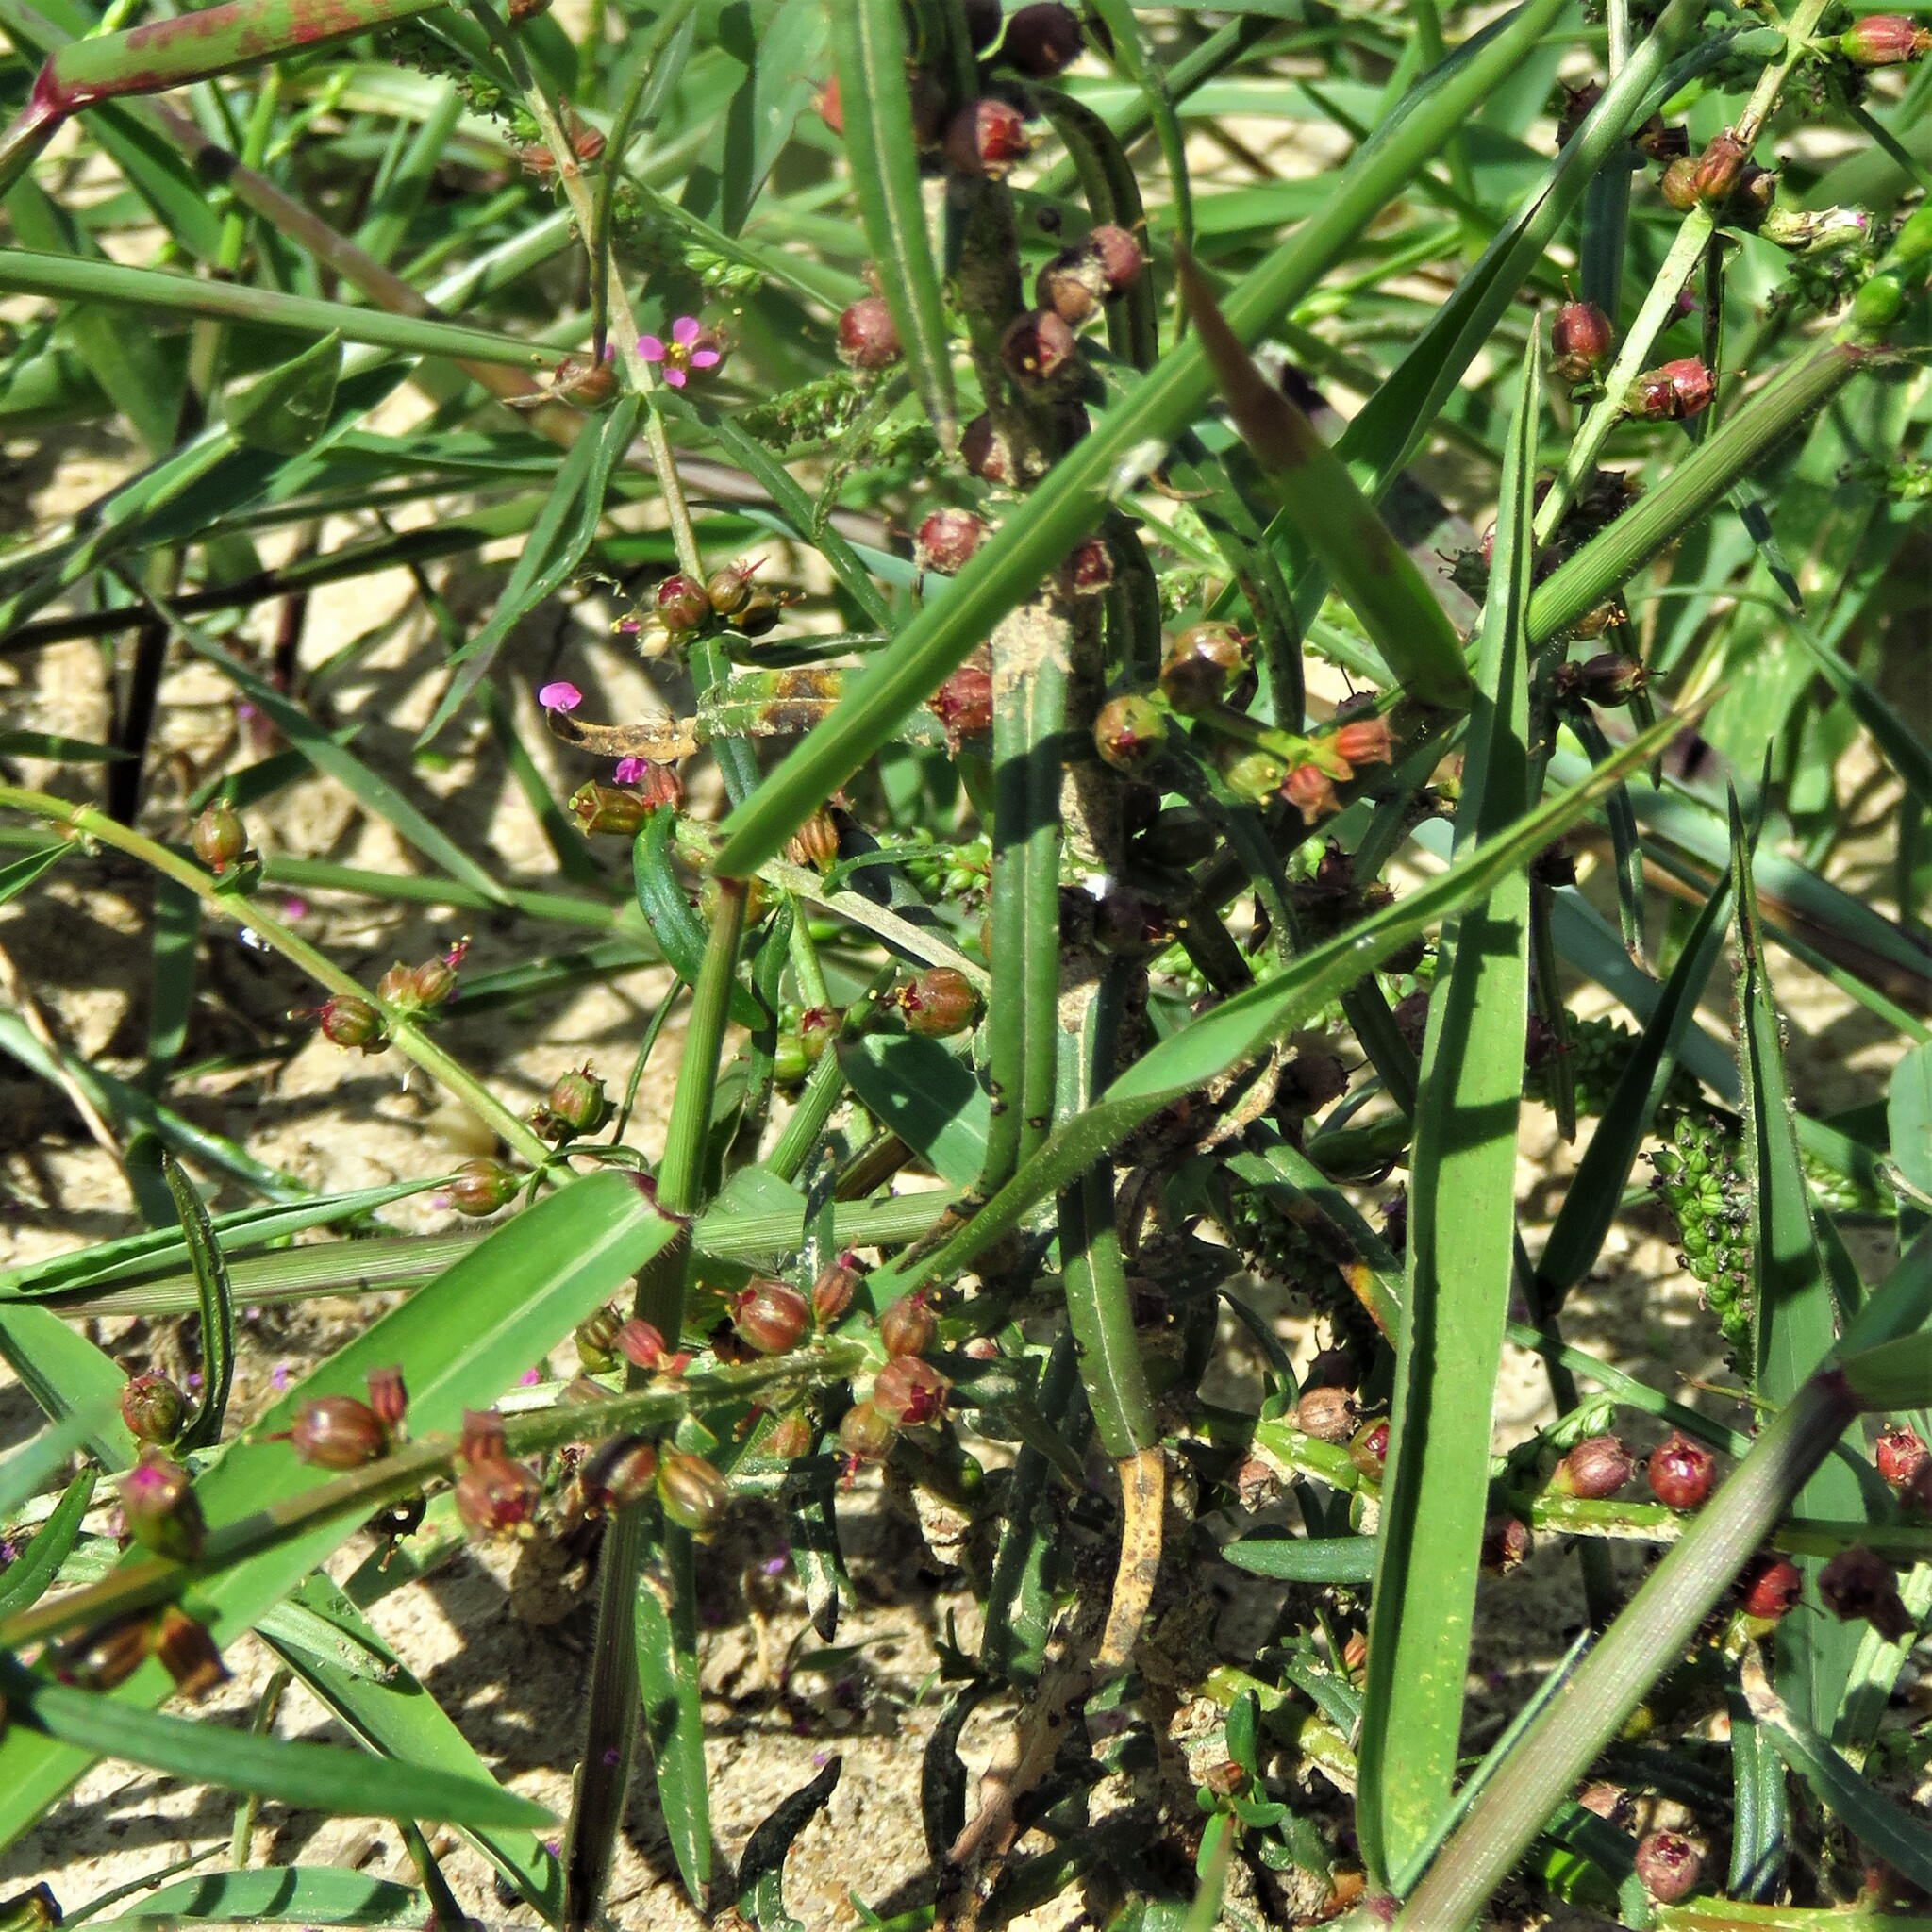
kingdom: Plantae
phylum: Tracheophyta
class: Magnoliopsida
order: Myrtales
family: Lythraceae
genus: Ammannia
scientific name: Ammannia coccinea
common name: Valley redstem
